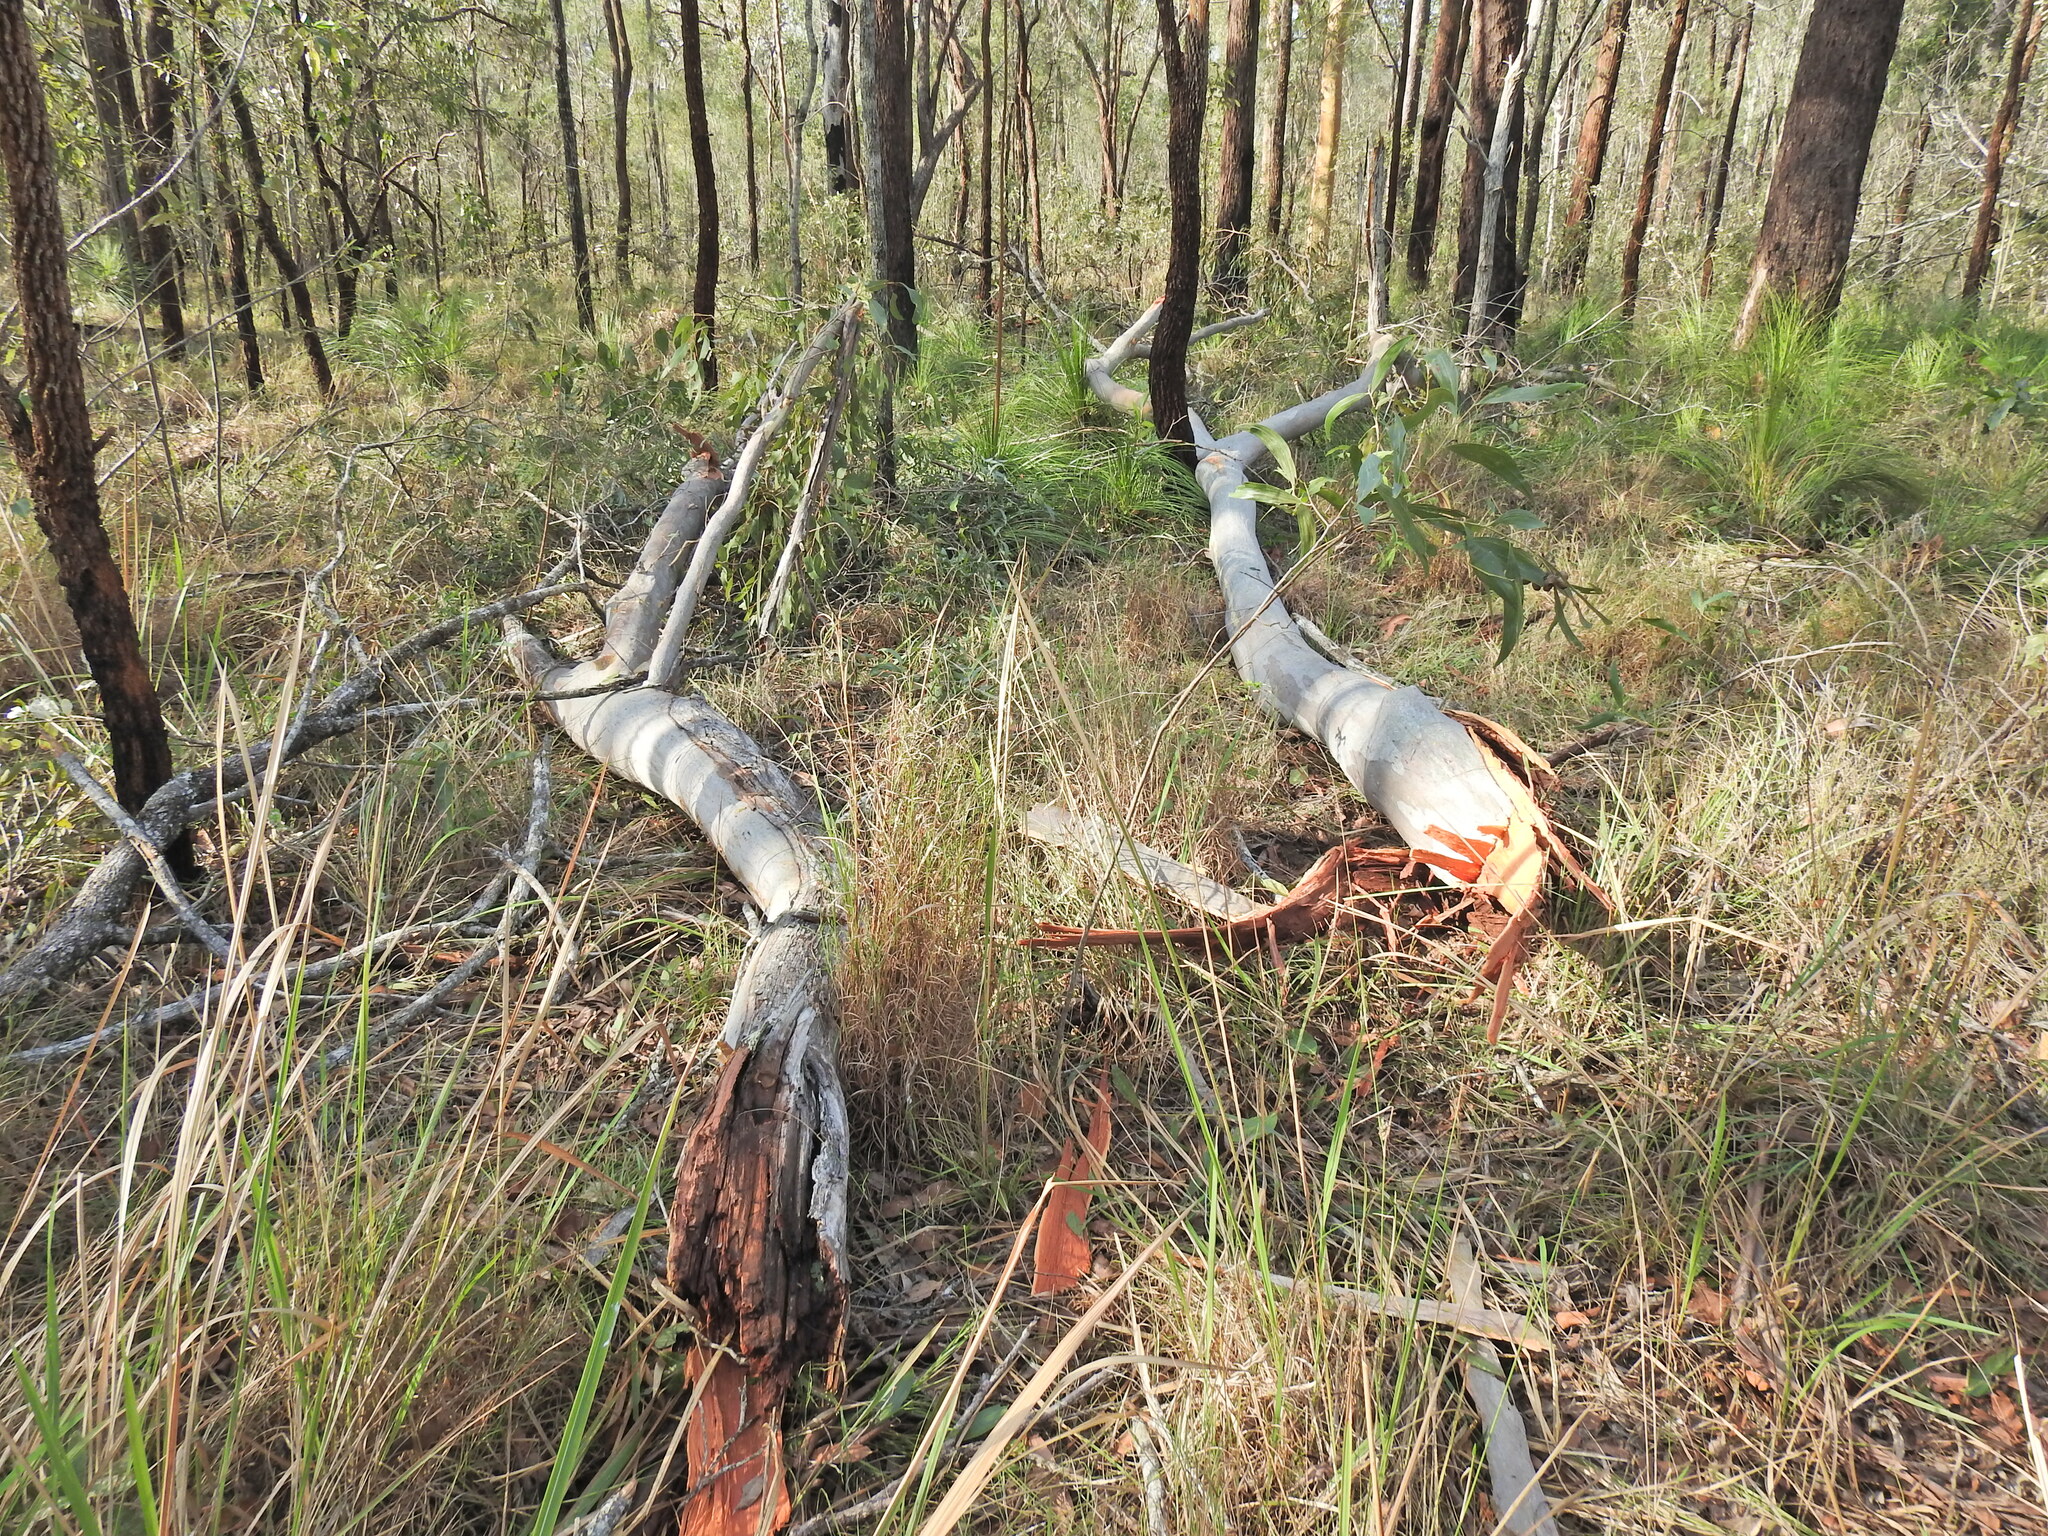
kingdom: Plantae
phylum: Tracheophyta
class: Magnoliopsida
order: Myrtales
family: Myrtaceae
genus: Eucalyptus
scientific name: Eucalyptus tereticornis
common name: Forest redgum
